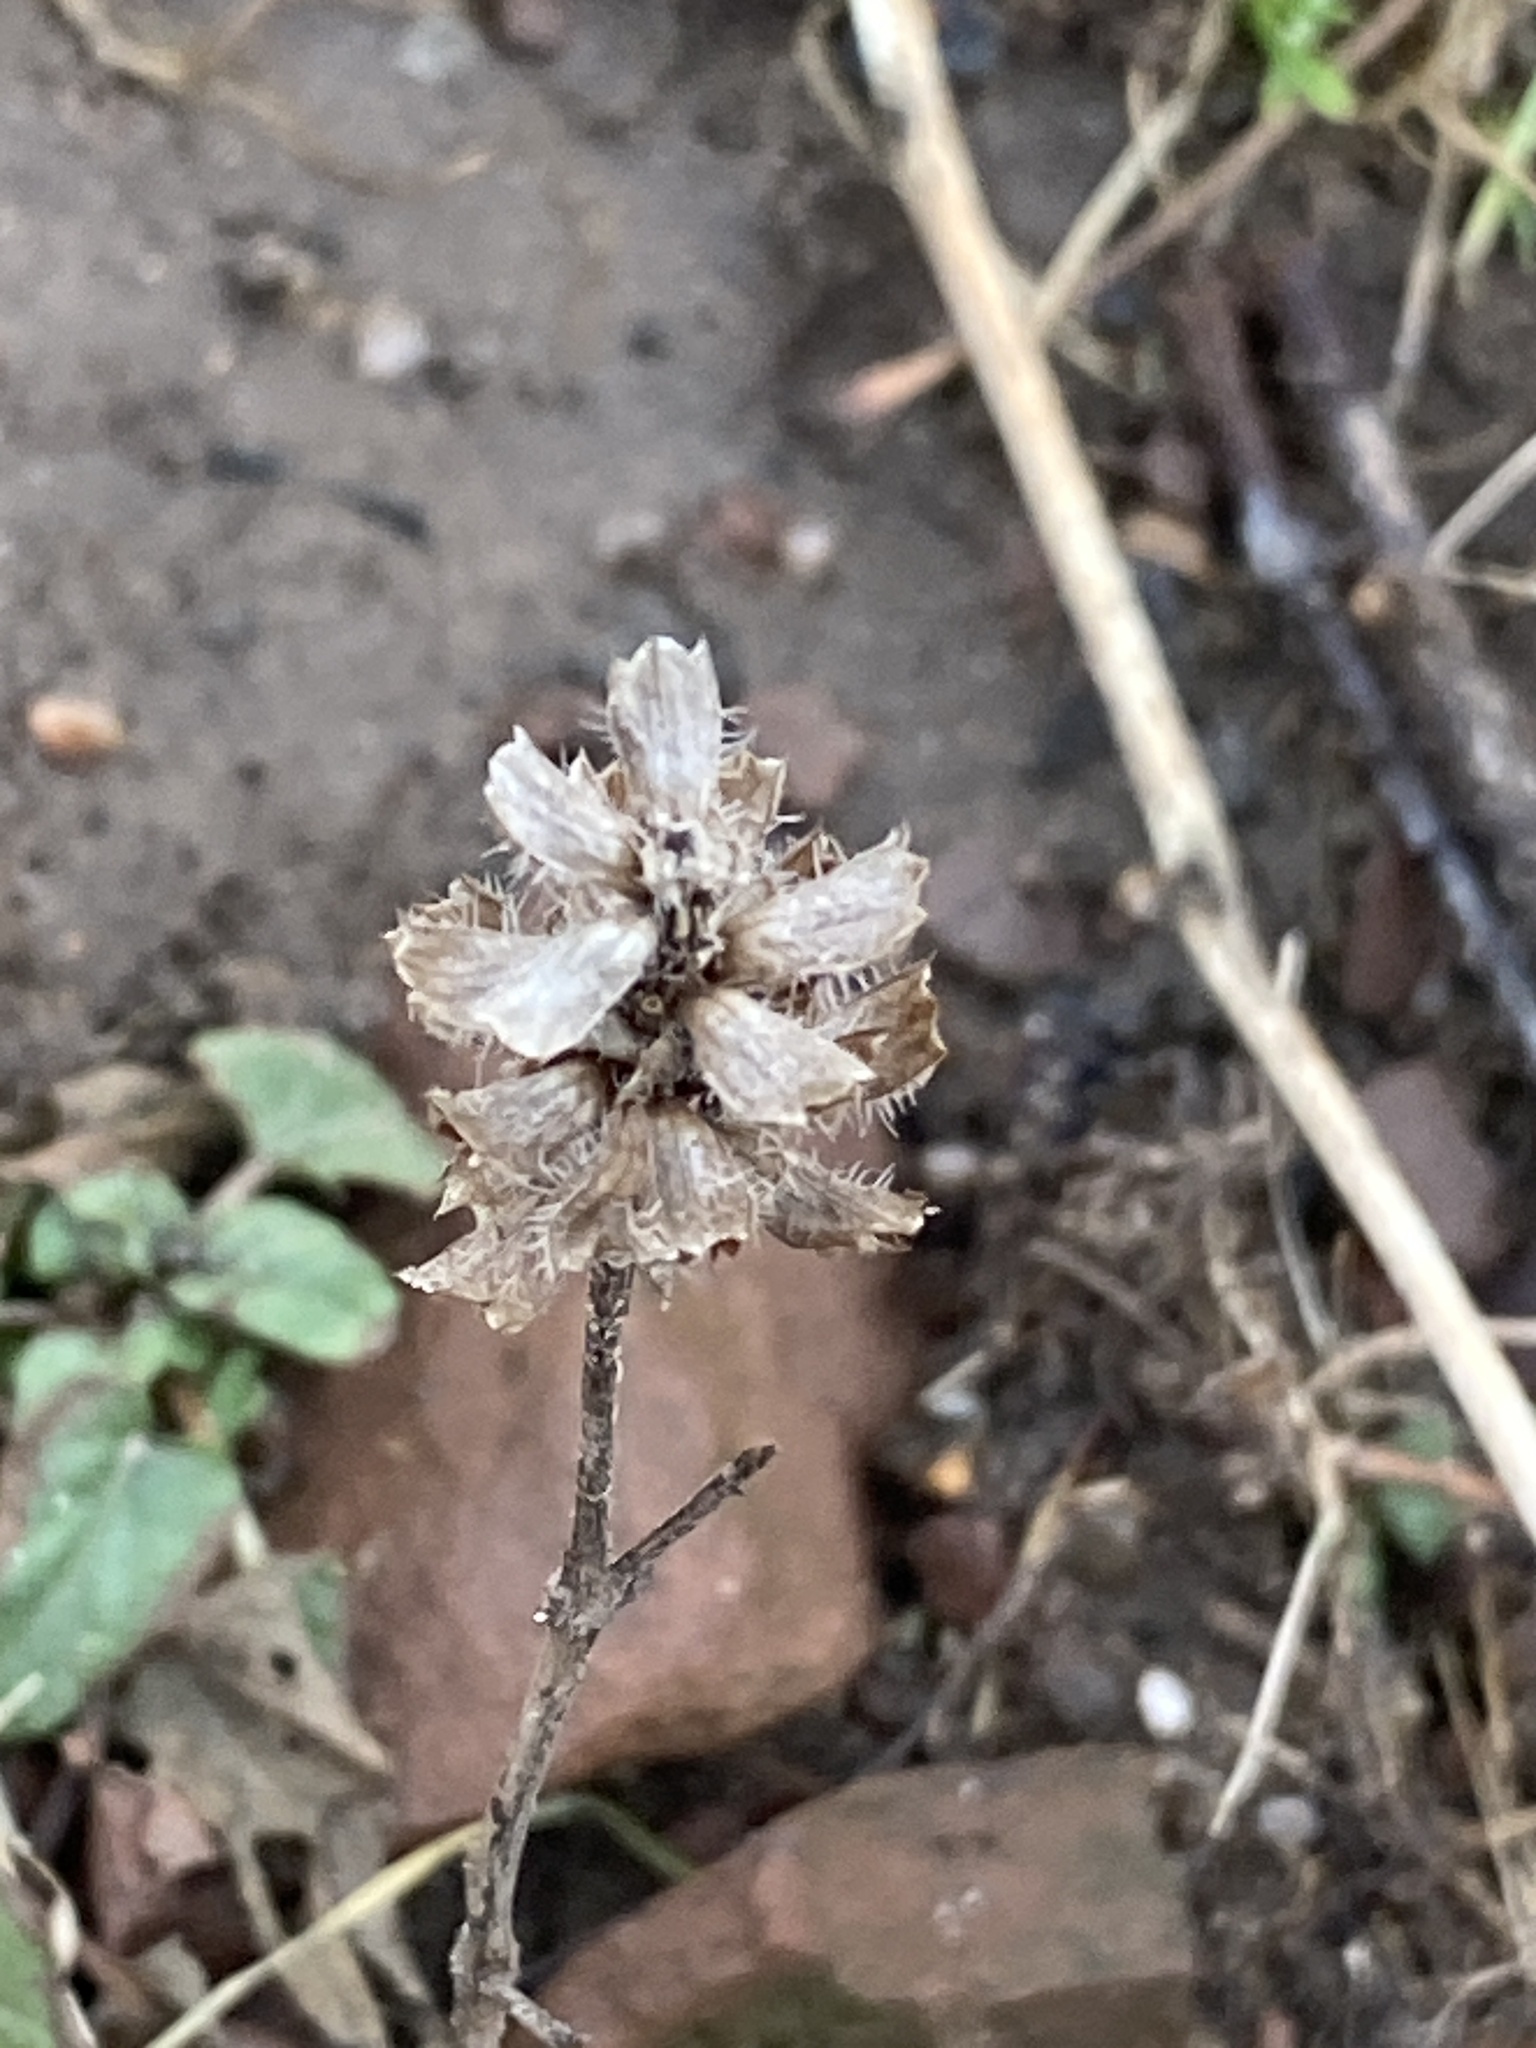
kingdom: Plantae
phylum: Tracheophyta
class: Magnoliopsida
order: Lamiales
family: Lamiaceae
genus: Prunella
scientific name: Prunella vulgaris
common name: Heal-all
